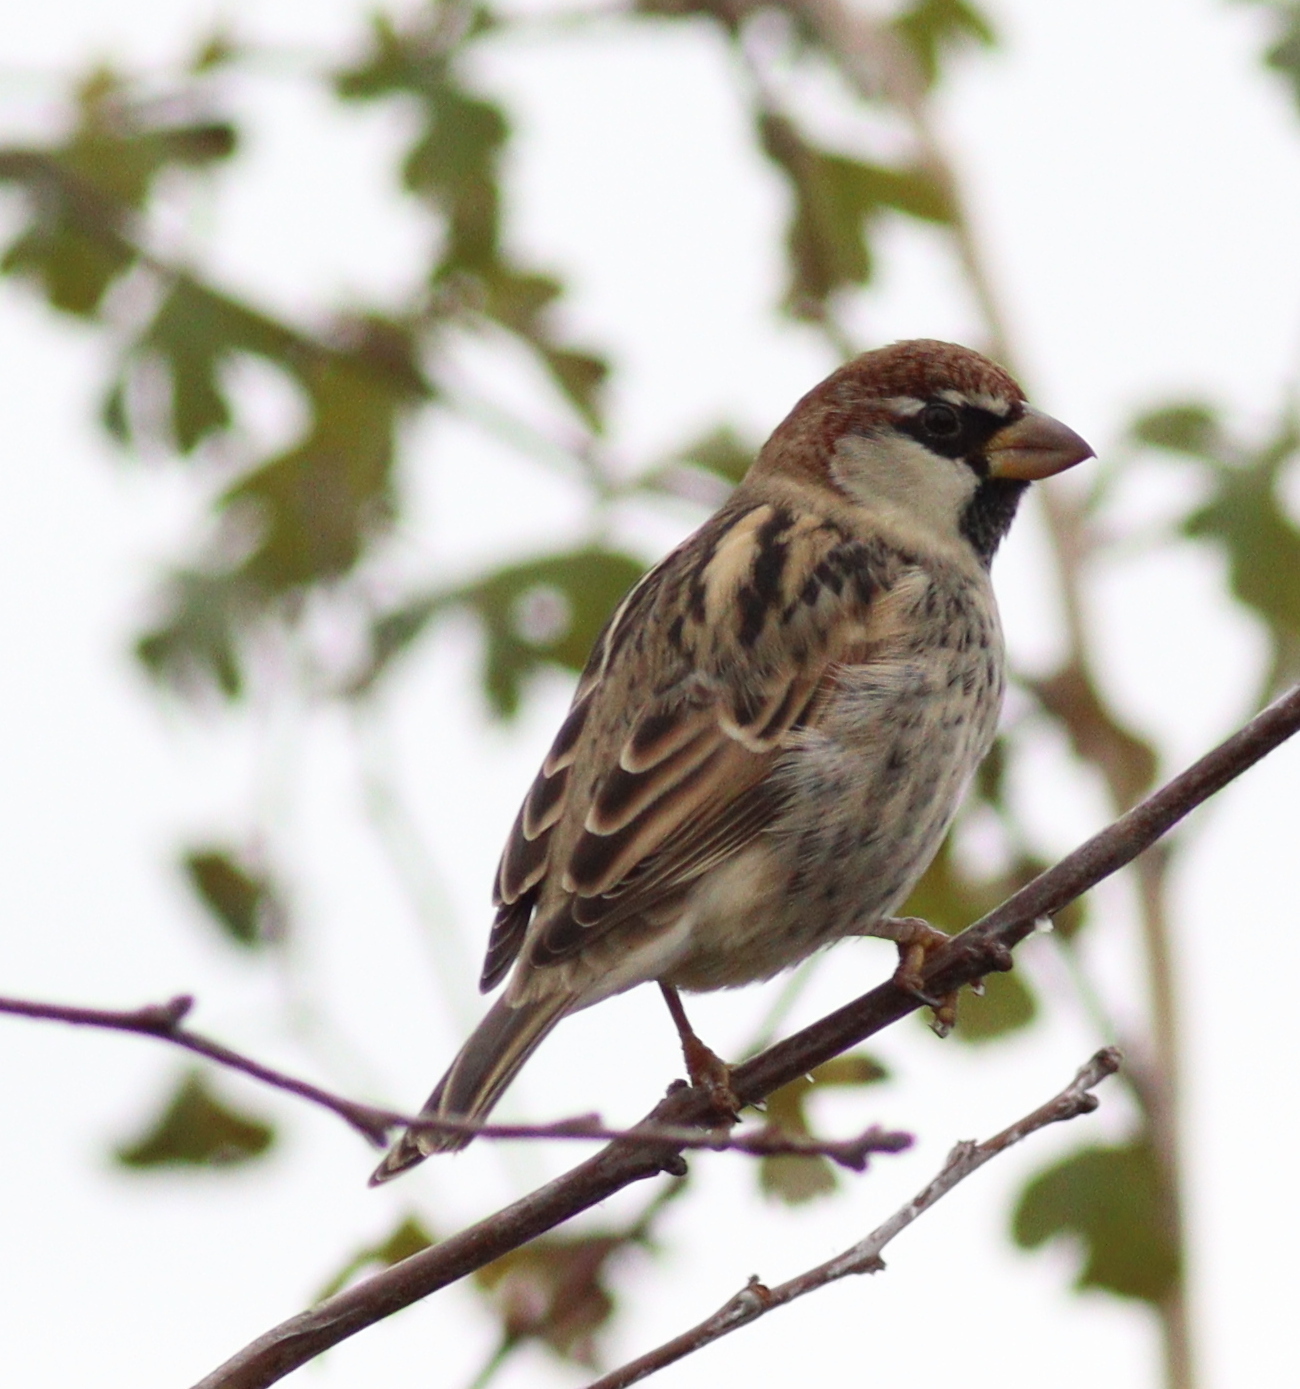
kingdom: Animalia
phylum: Chordata
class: Aves
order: Passeriformes
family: Passeridae
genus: Passer
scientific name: Passer hispaniolensis
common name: Spanish sparrow
